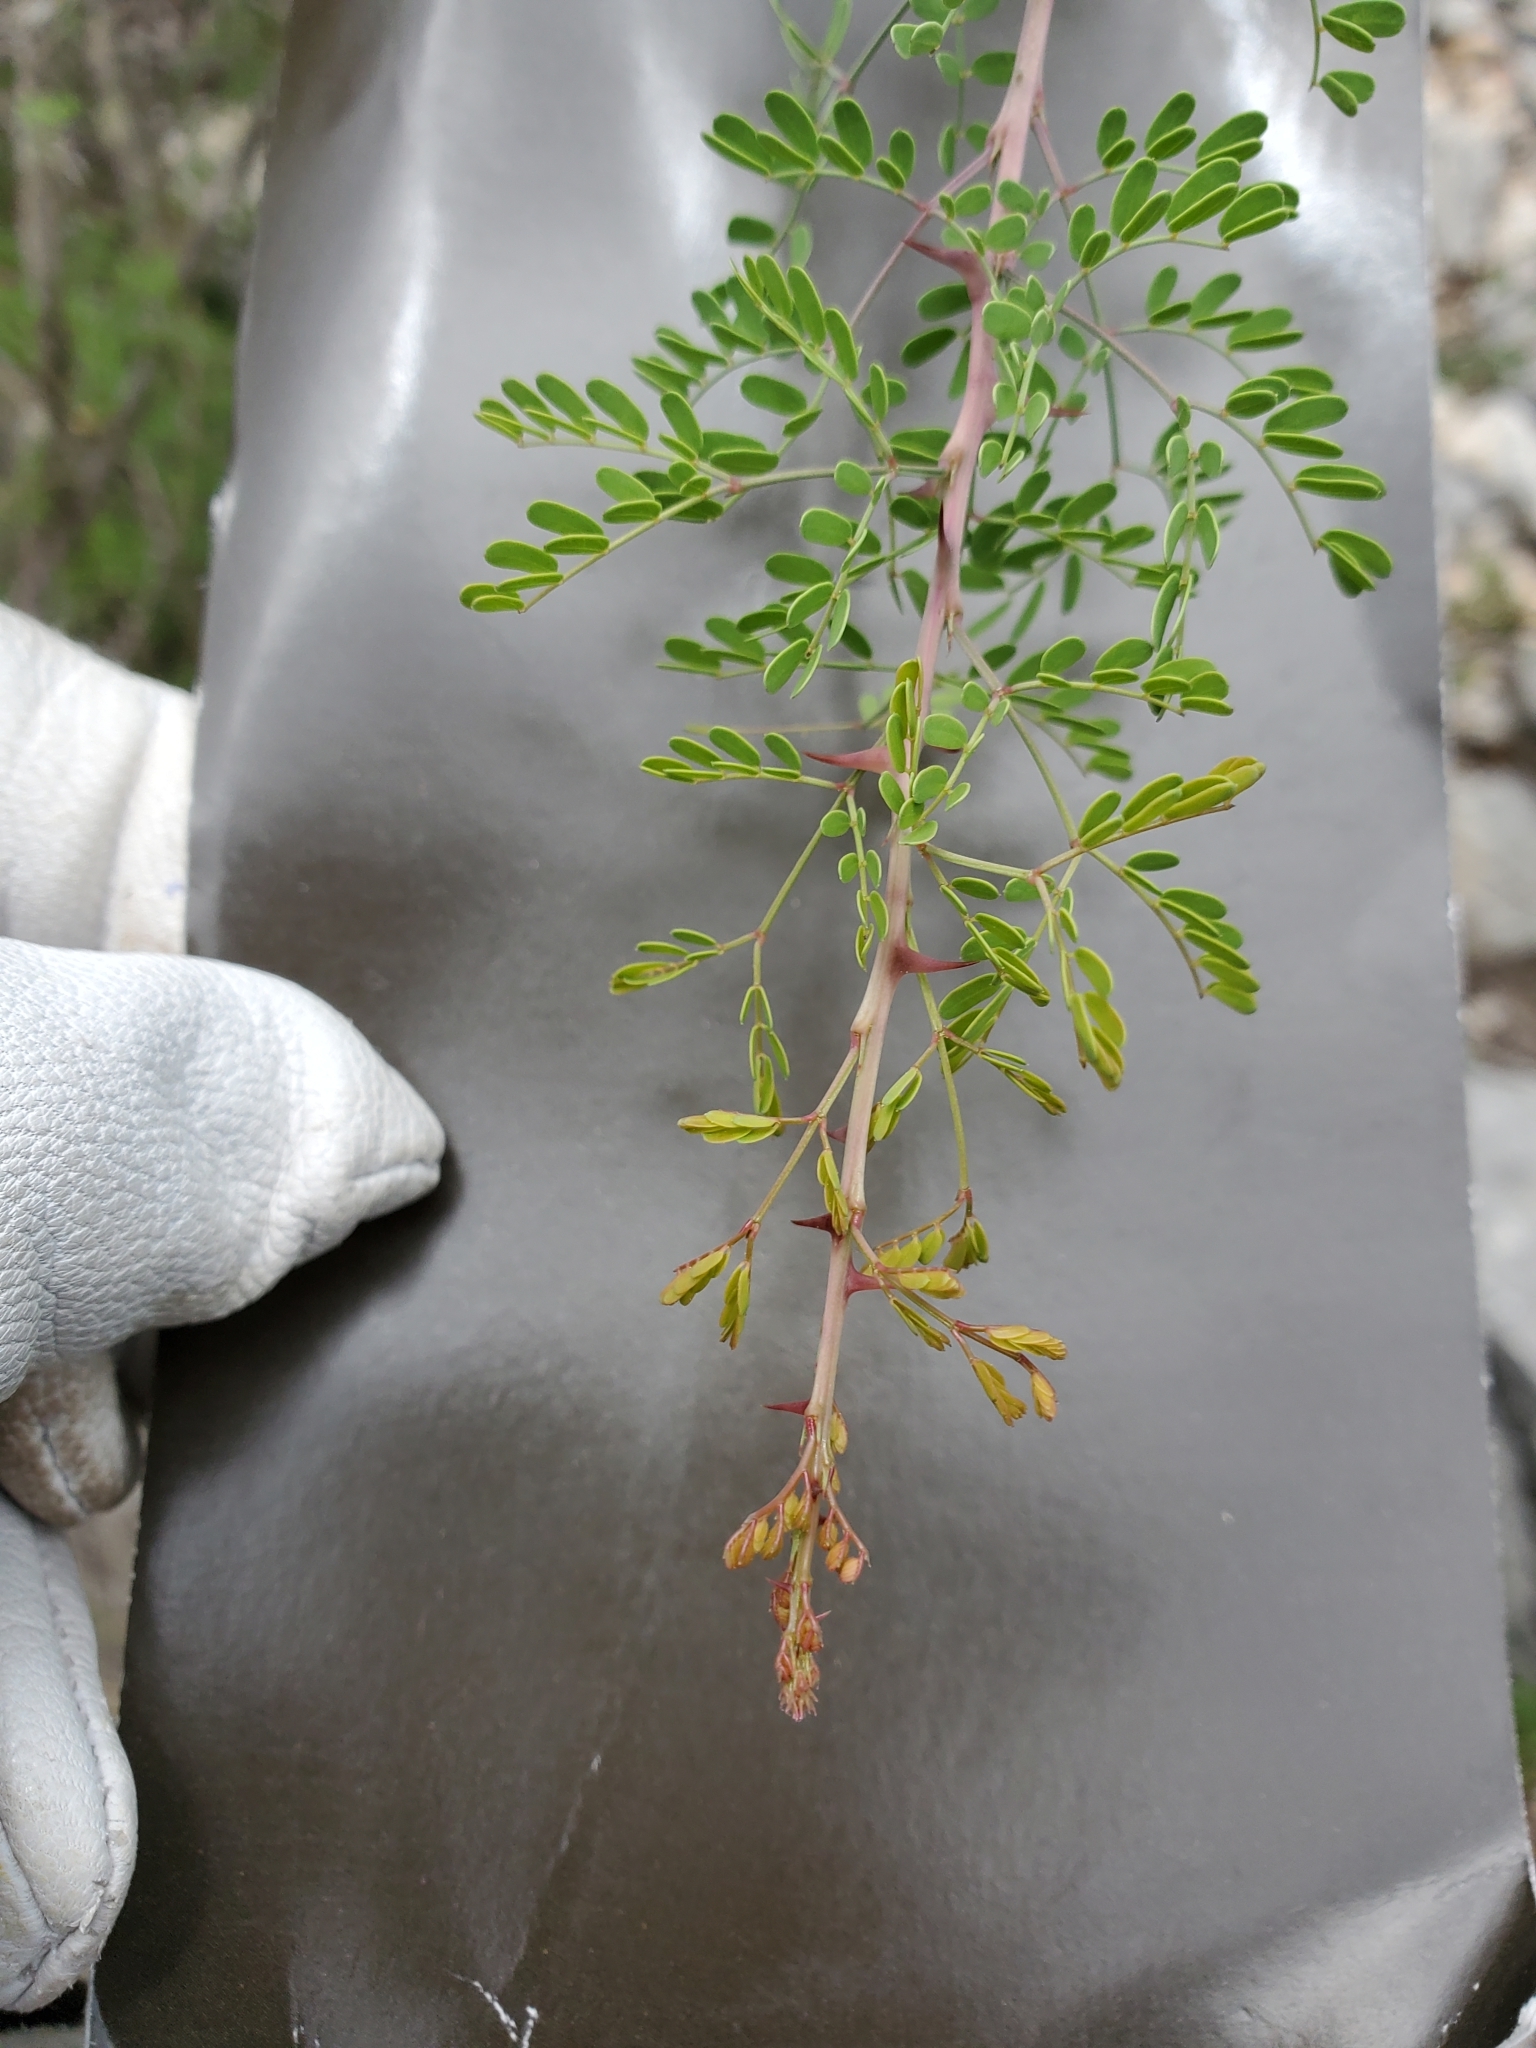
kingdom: Plantae
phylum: Tracheophyta
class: Magnoliopsida
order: Fabales
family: Fabaceae
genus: Mimosa
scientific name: Mimosa borealis
